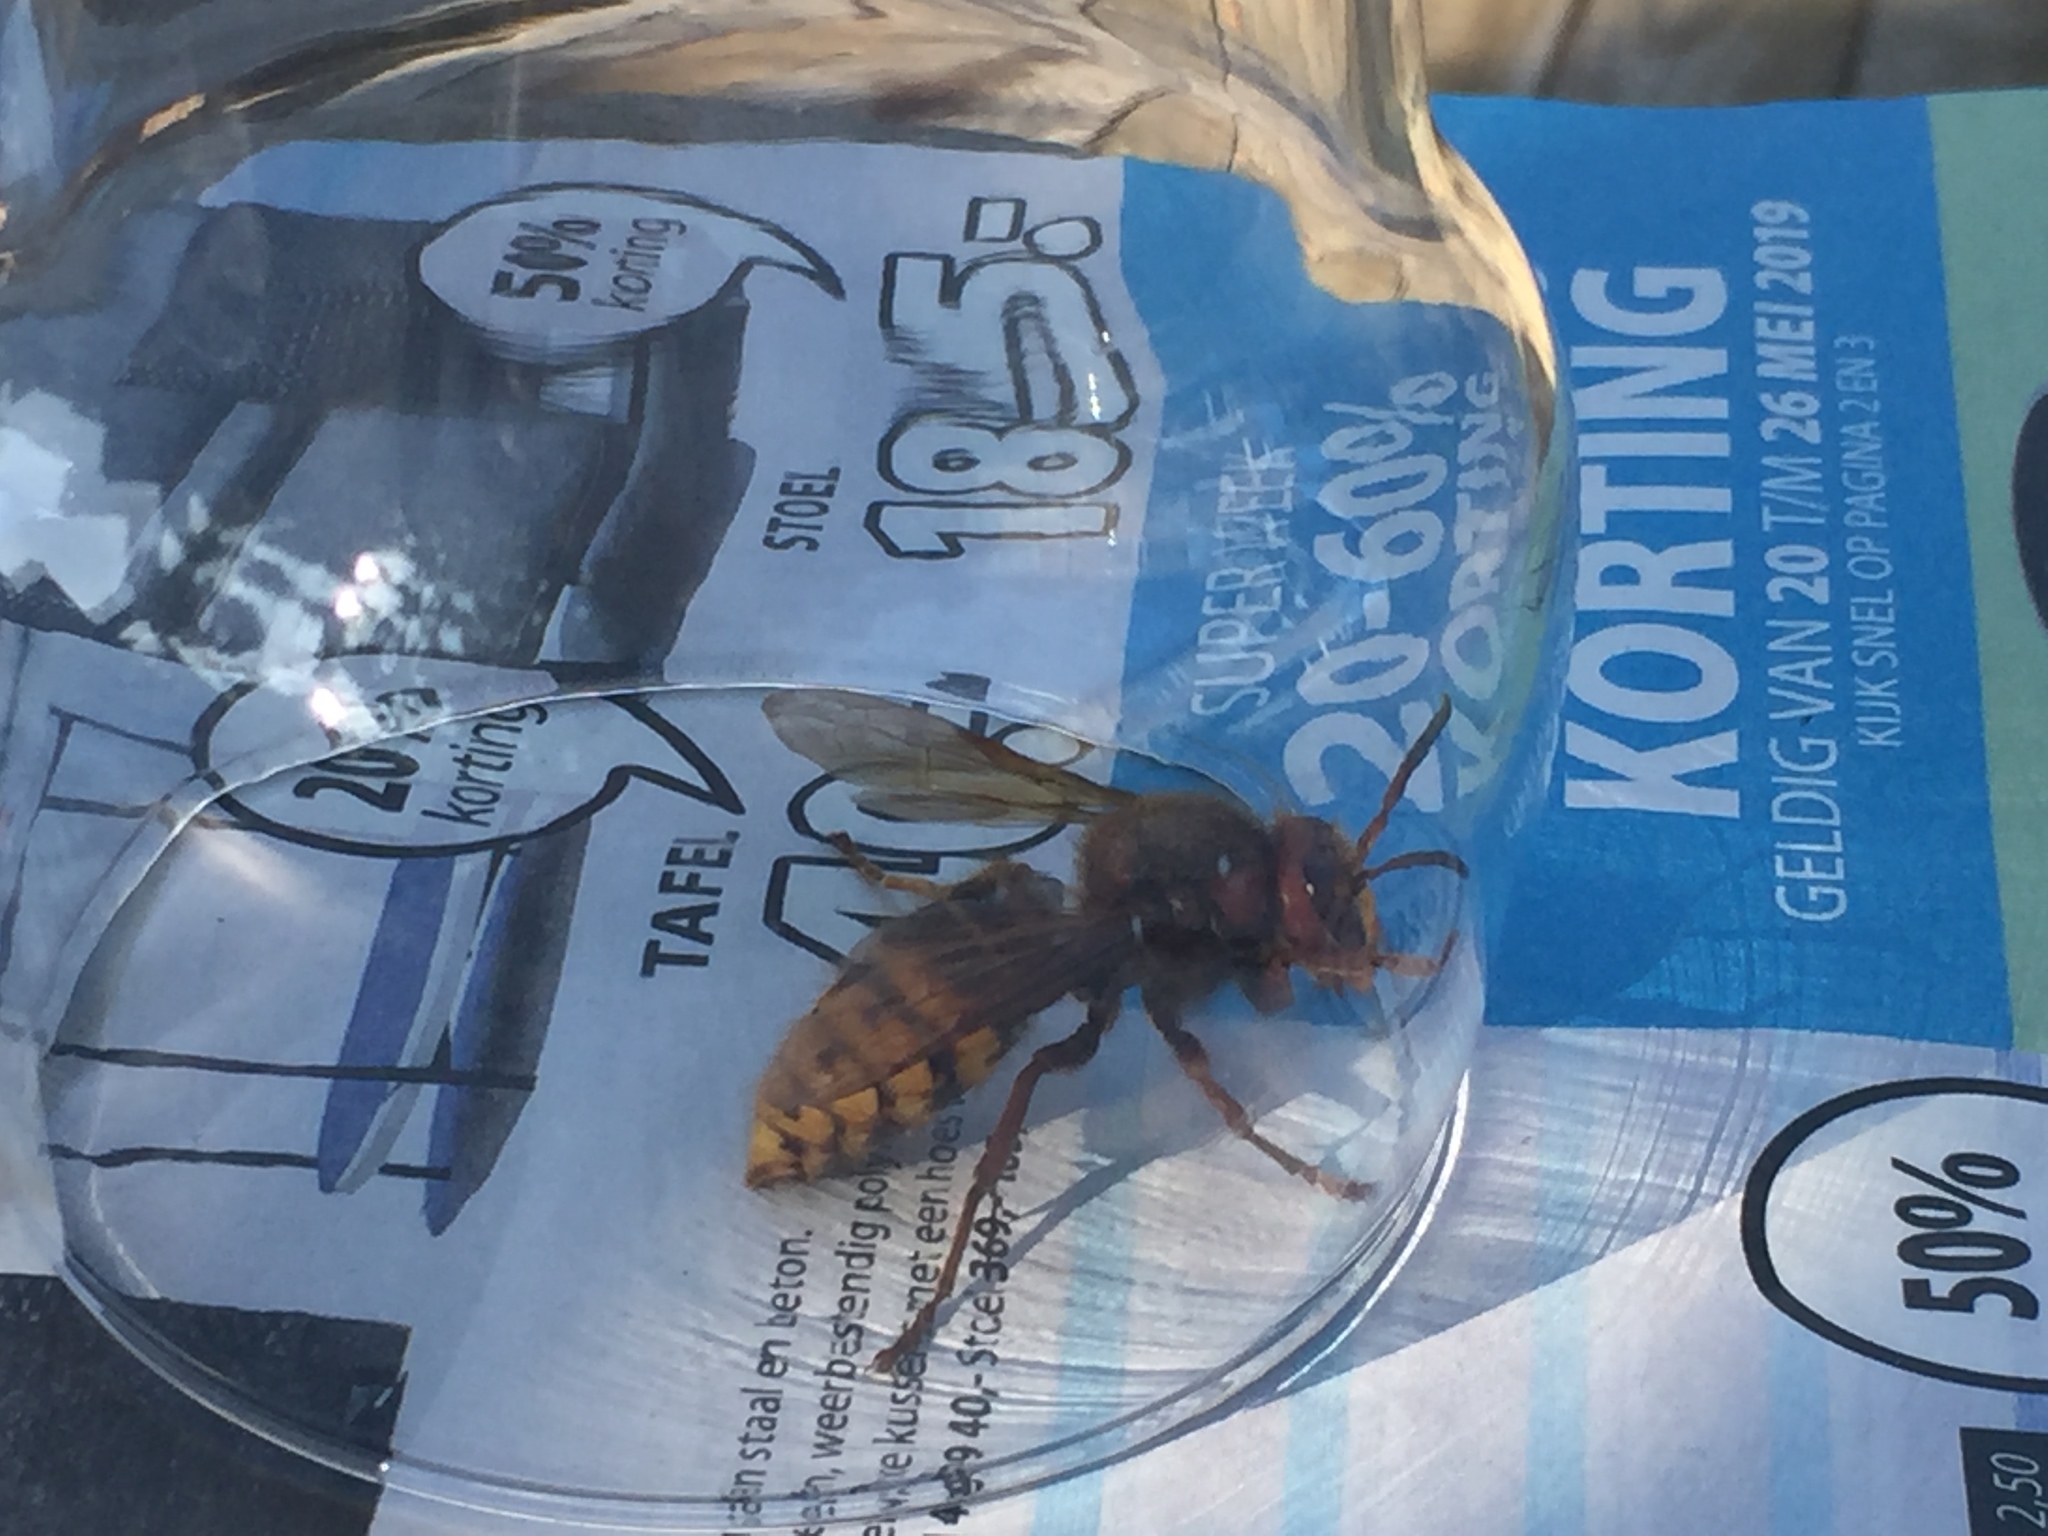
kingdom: Animalia
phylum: Arthropoda
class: Insecta
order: Hymenoptera
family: Vespidae
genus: Vespa
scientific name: Vespa crabro
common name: Hornet
